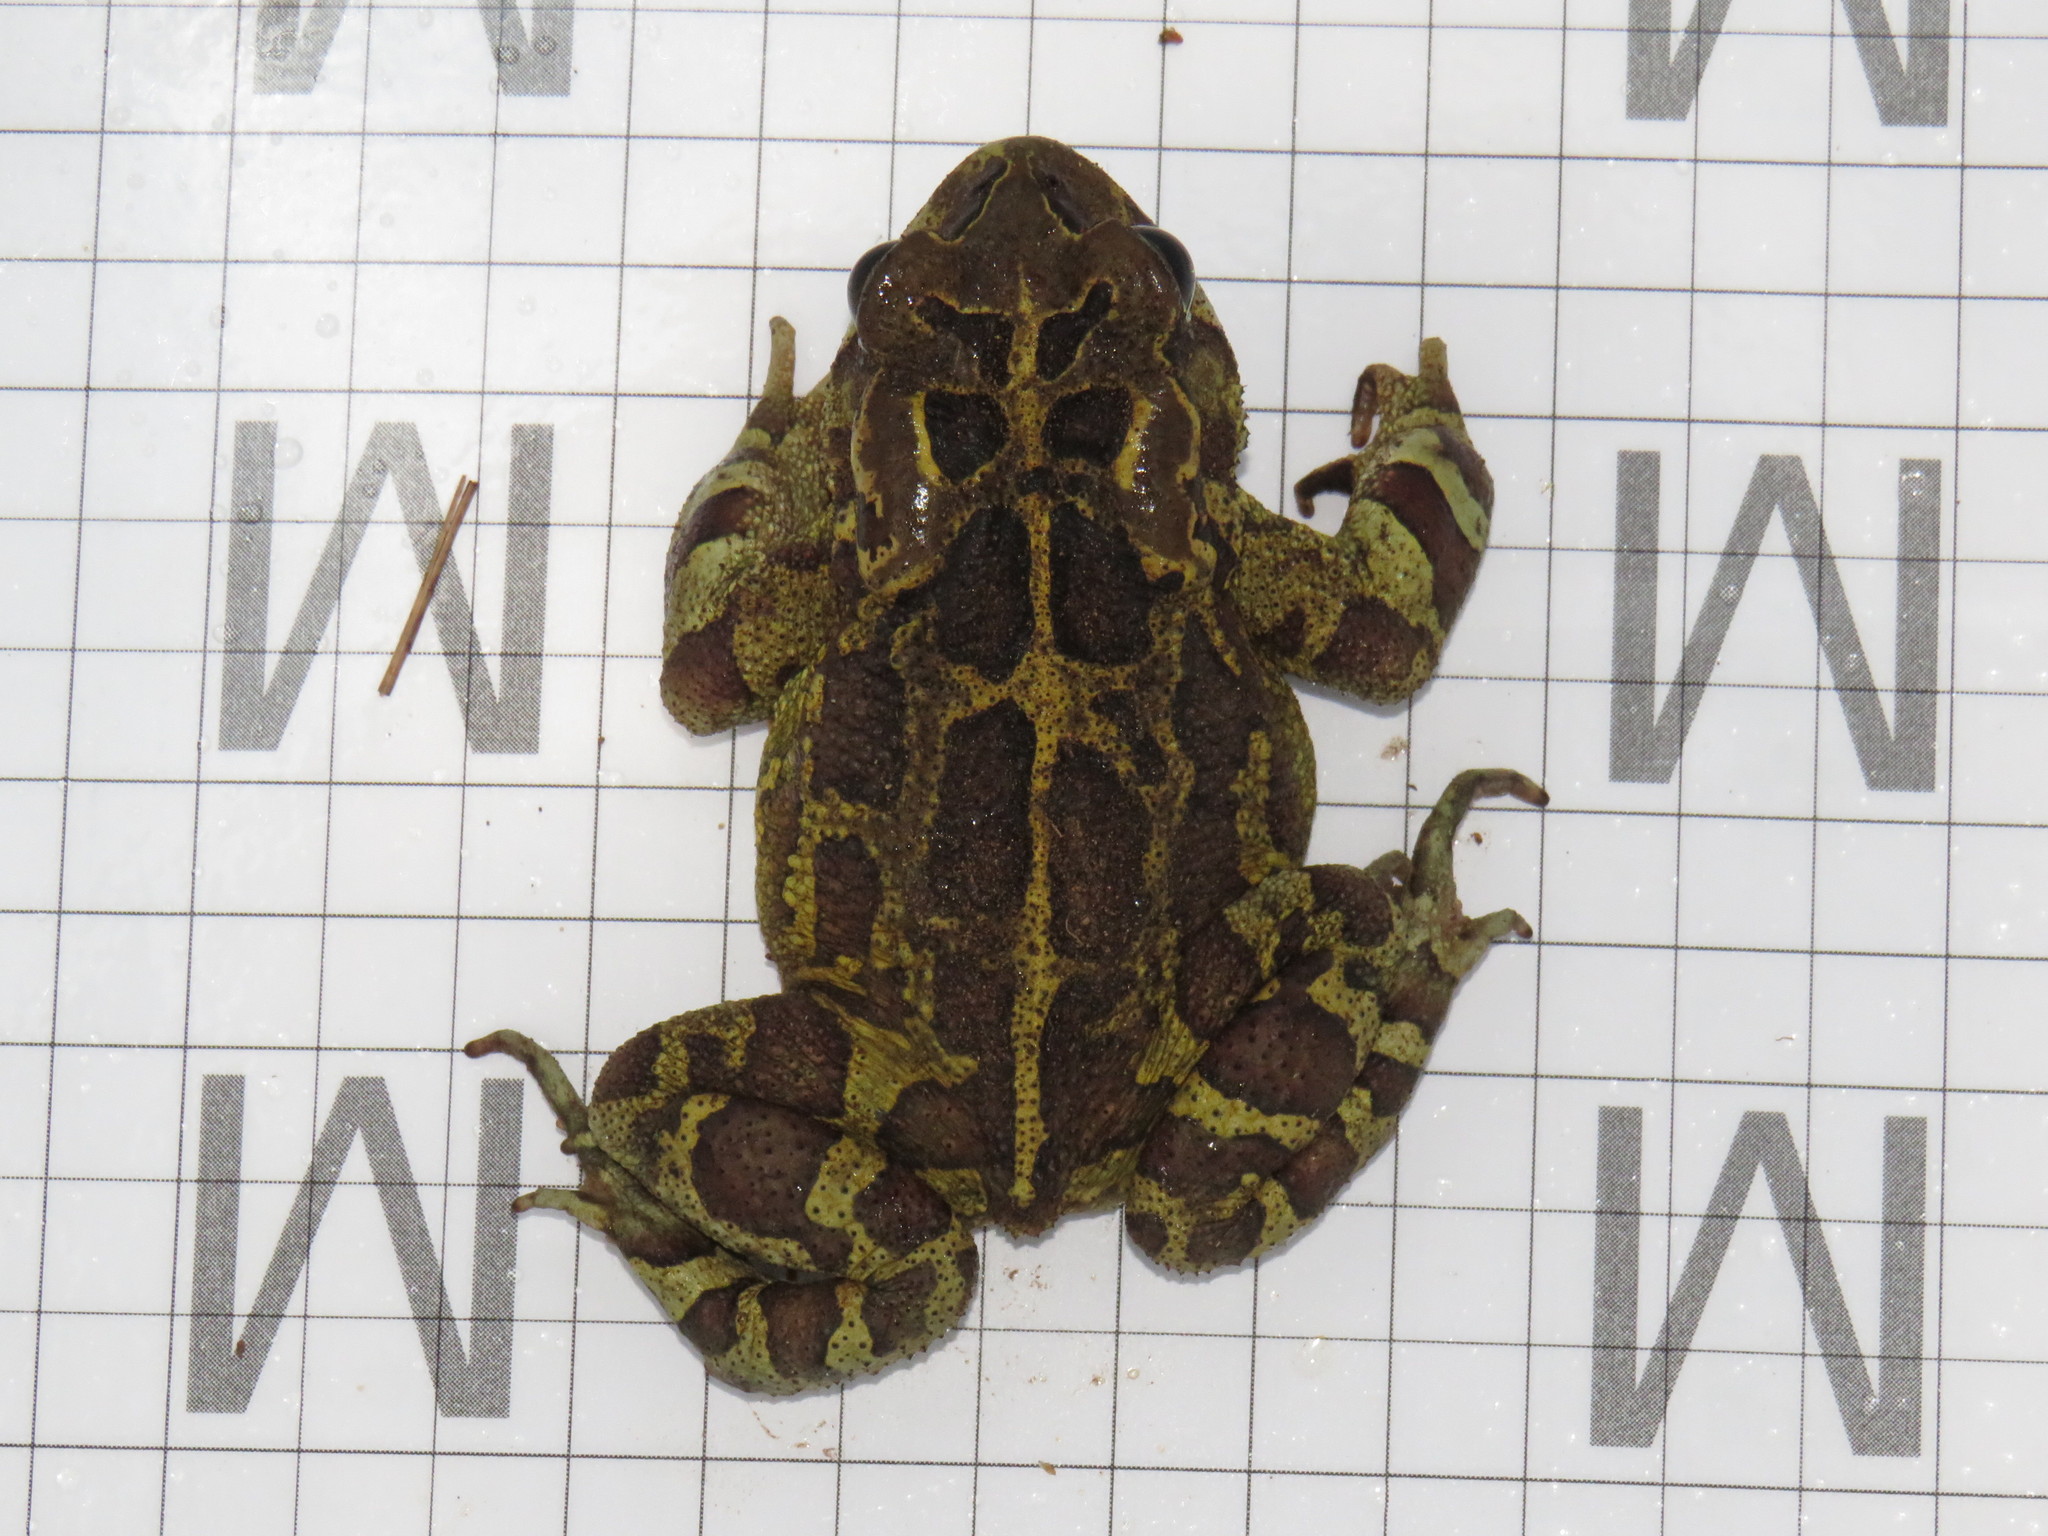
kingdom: Animalia
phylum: Chordata
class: Amphibia
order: Anura
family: Bufonidae
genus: Sclerophrys
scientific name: Sclerophrys pantherina
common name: Panther toad
